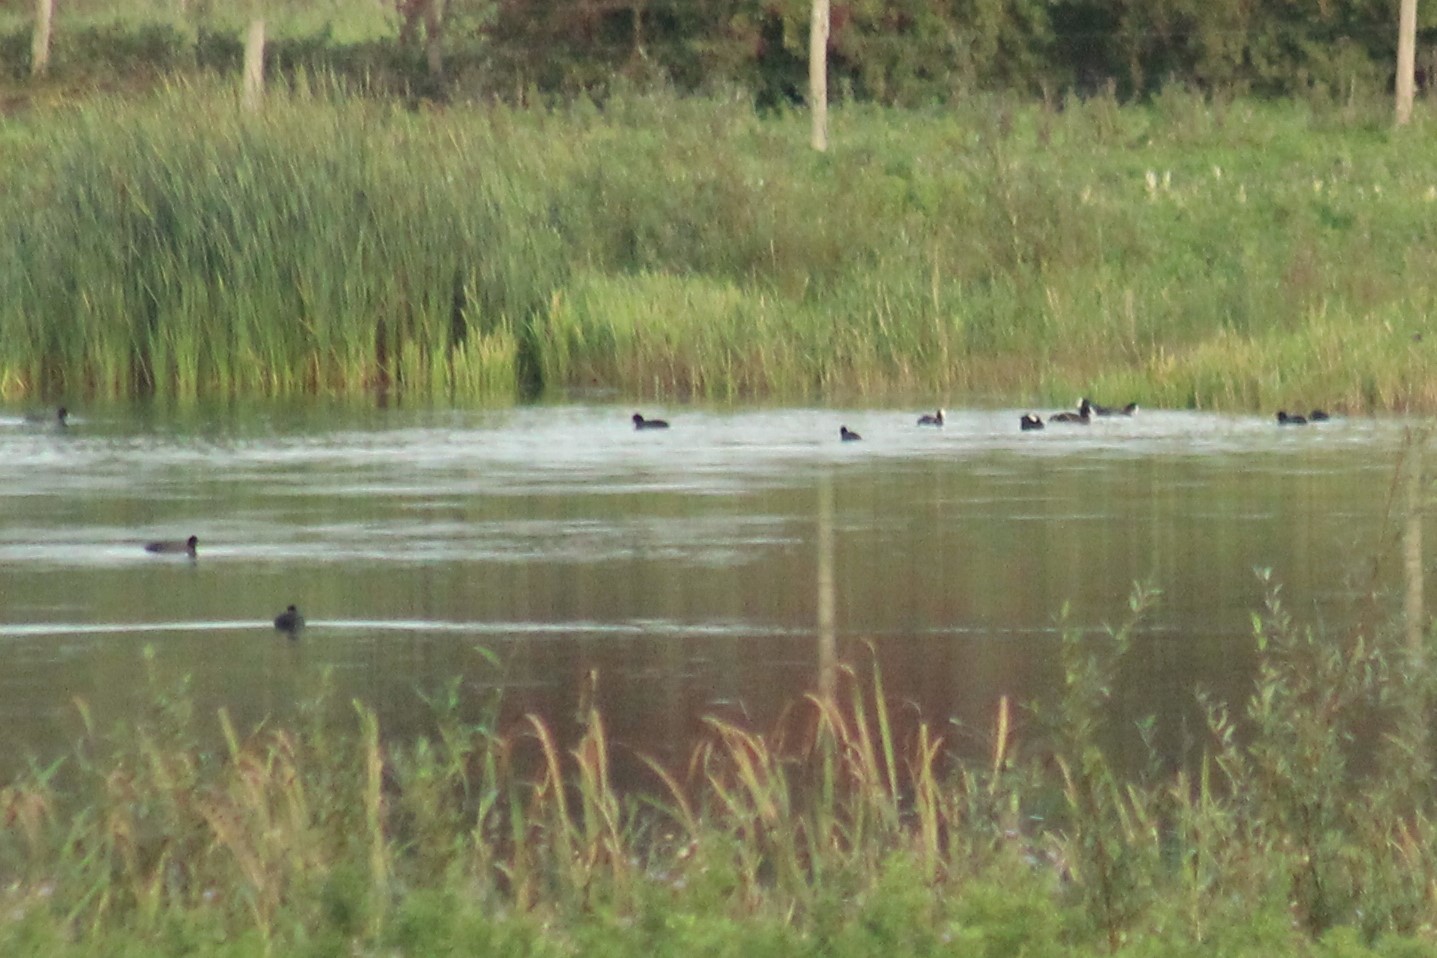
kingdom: Animalia
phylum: Chordata
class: Aves
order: Gruiformes
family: Rallidae
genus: Fulica
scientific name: Fulica atra
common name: Eurasian coot
